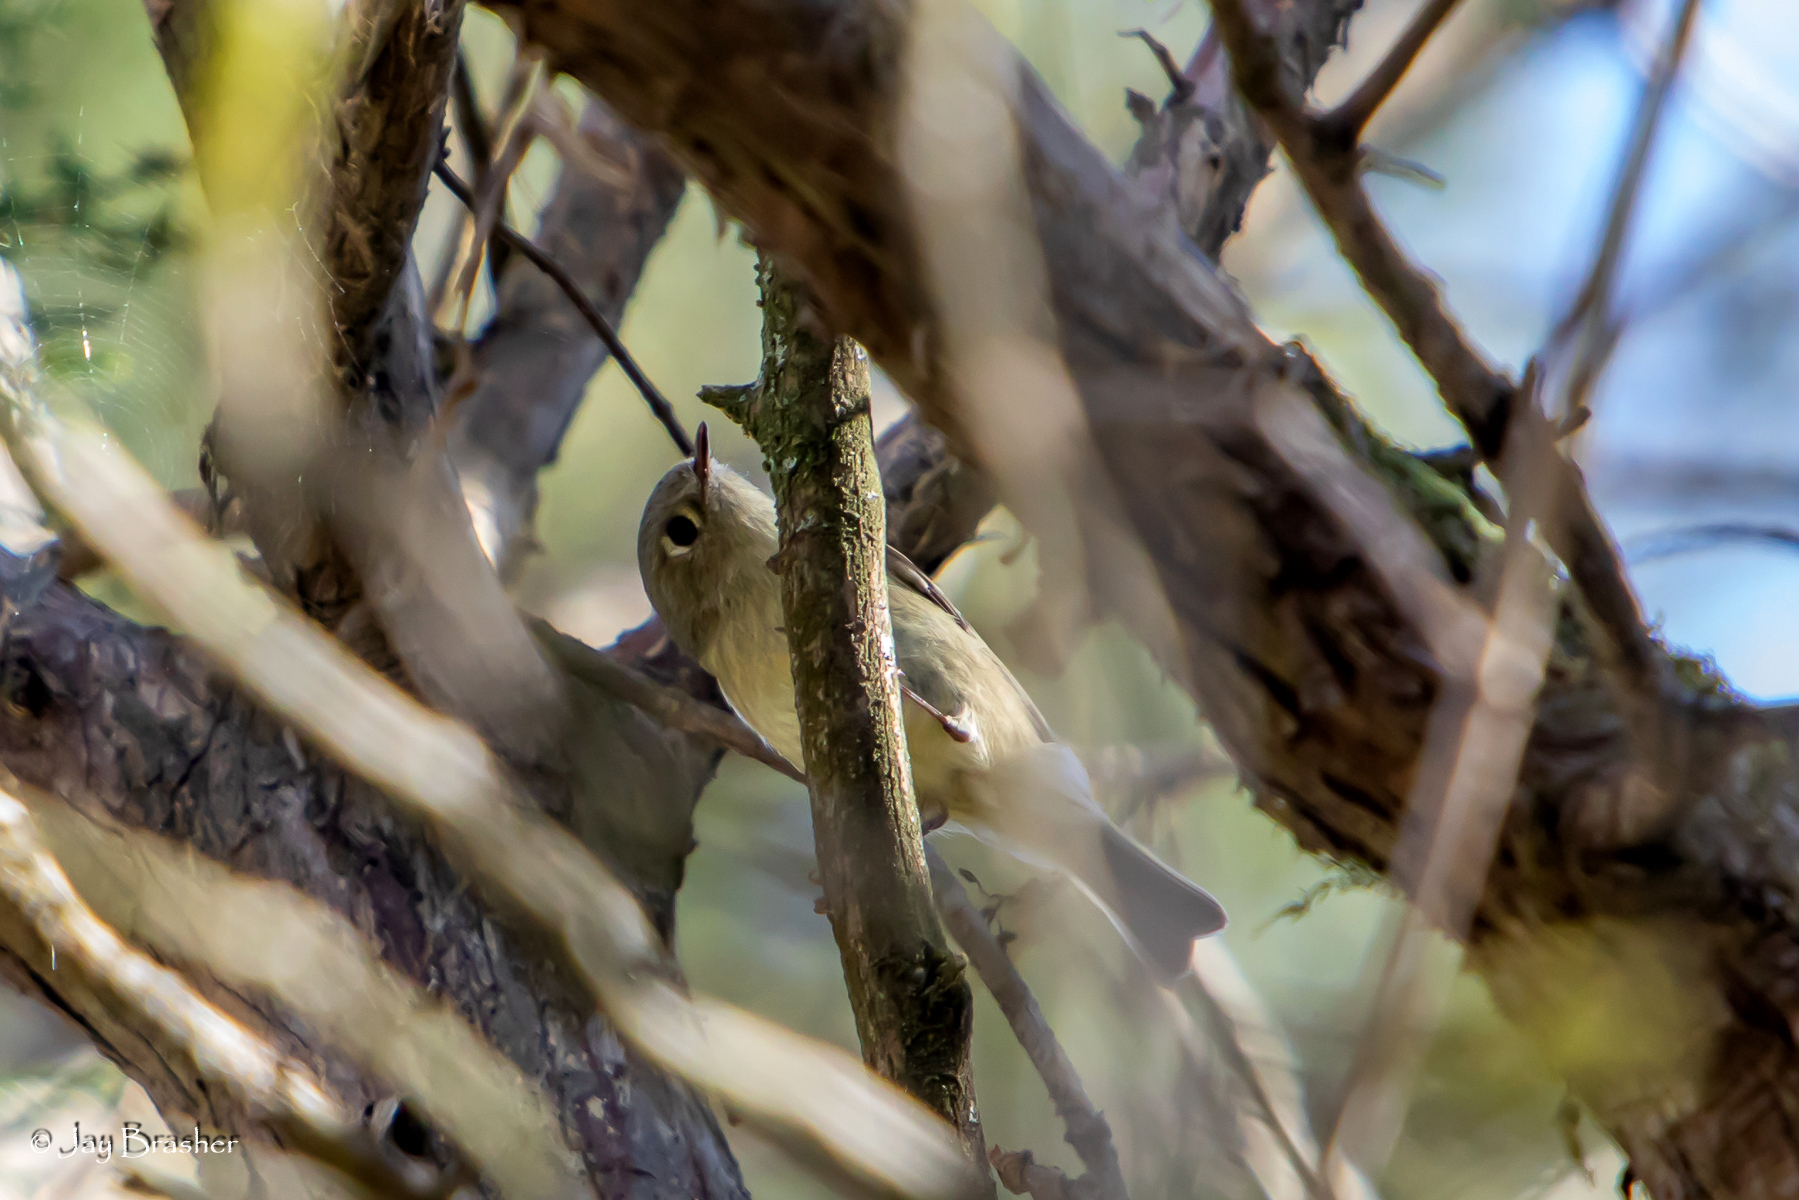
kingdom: Animalia
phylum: Chordata
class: Aves
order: Passeriformes
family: Regulidae
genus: Regulus
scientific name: Regulus calendula
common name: Ruby-crowned kinglet
